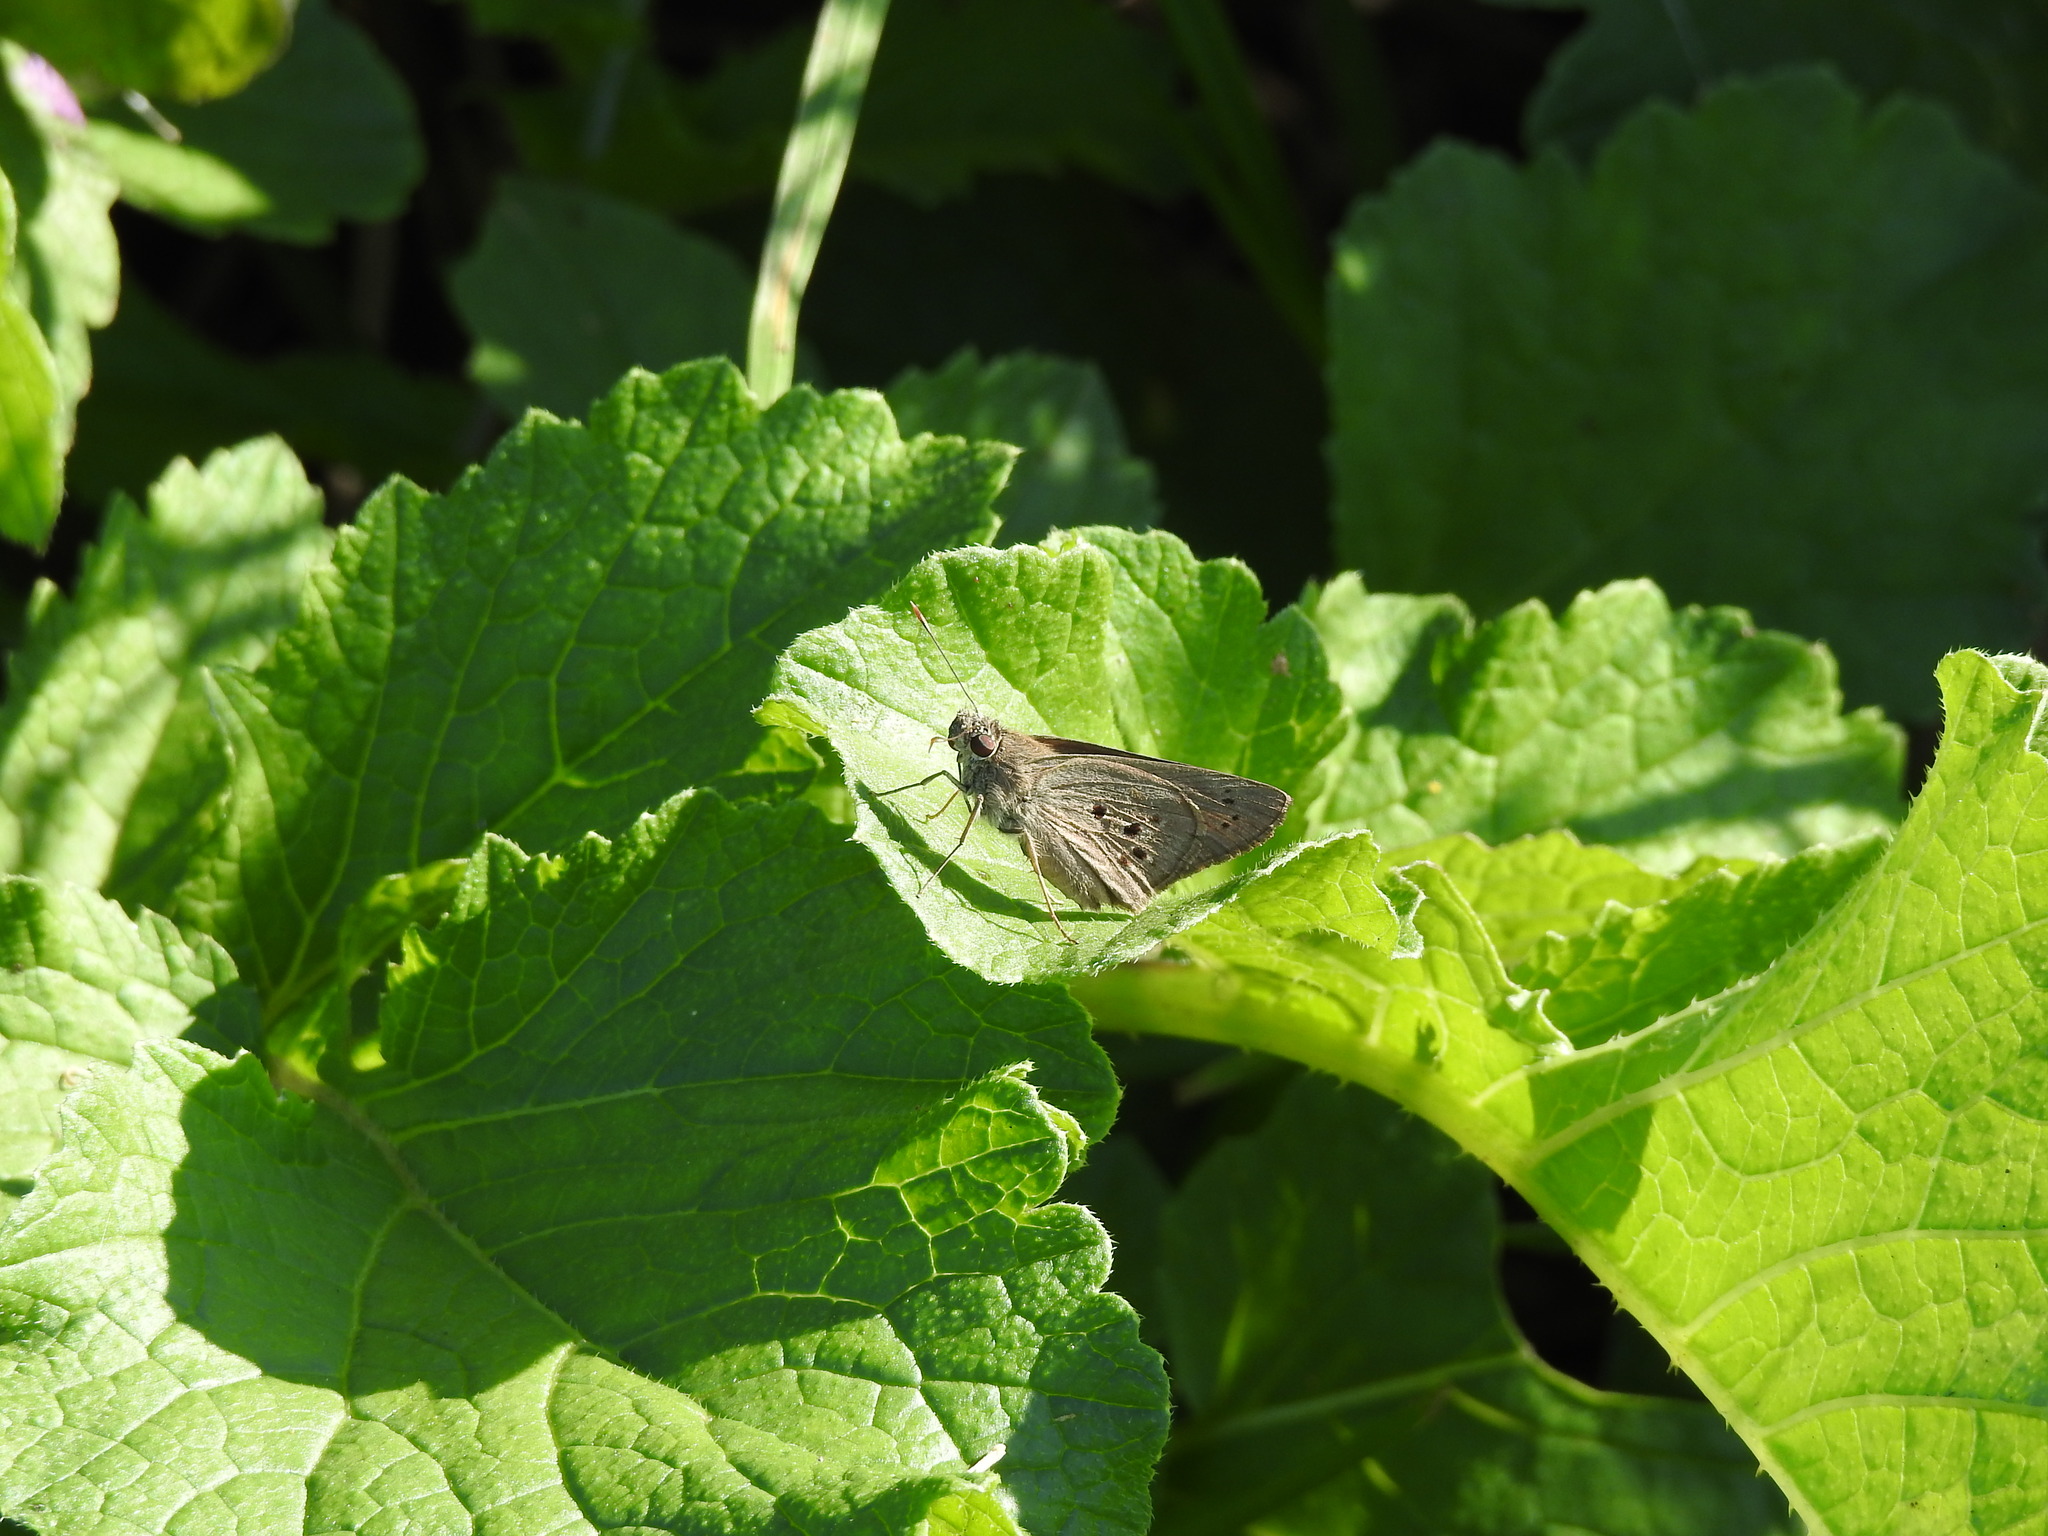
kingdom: Animalia
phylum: Arthropoda
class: Insecta
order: Lepidoptera
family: Hesperiidae
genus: Carystus
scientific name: Carystus
